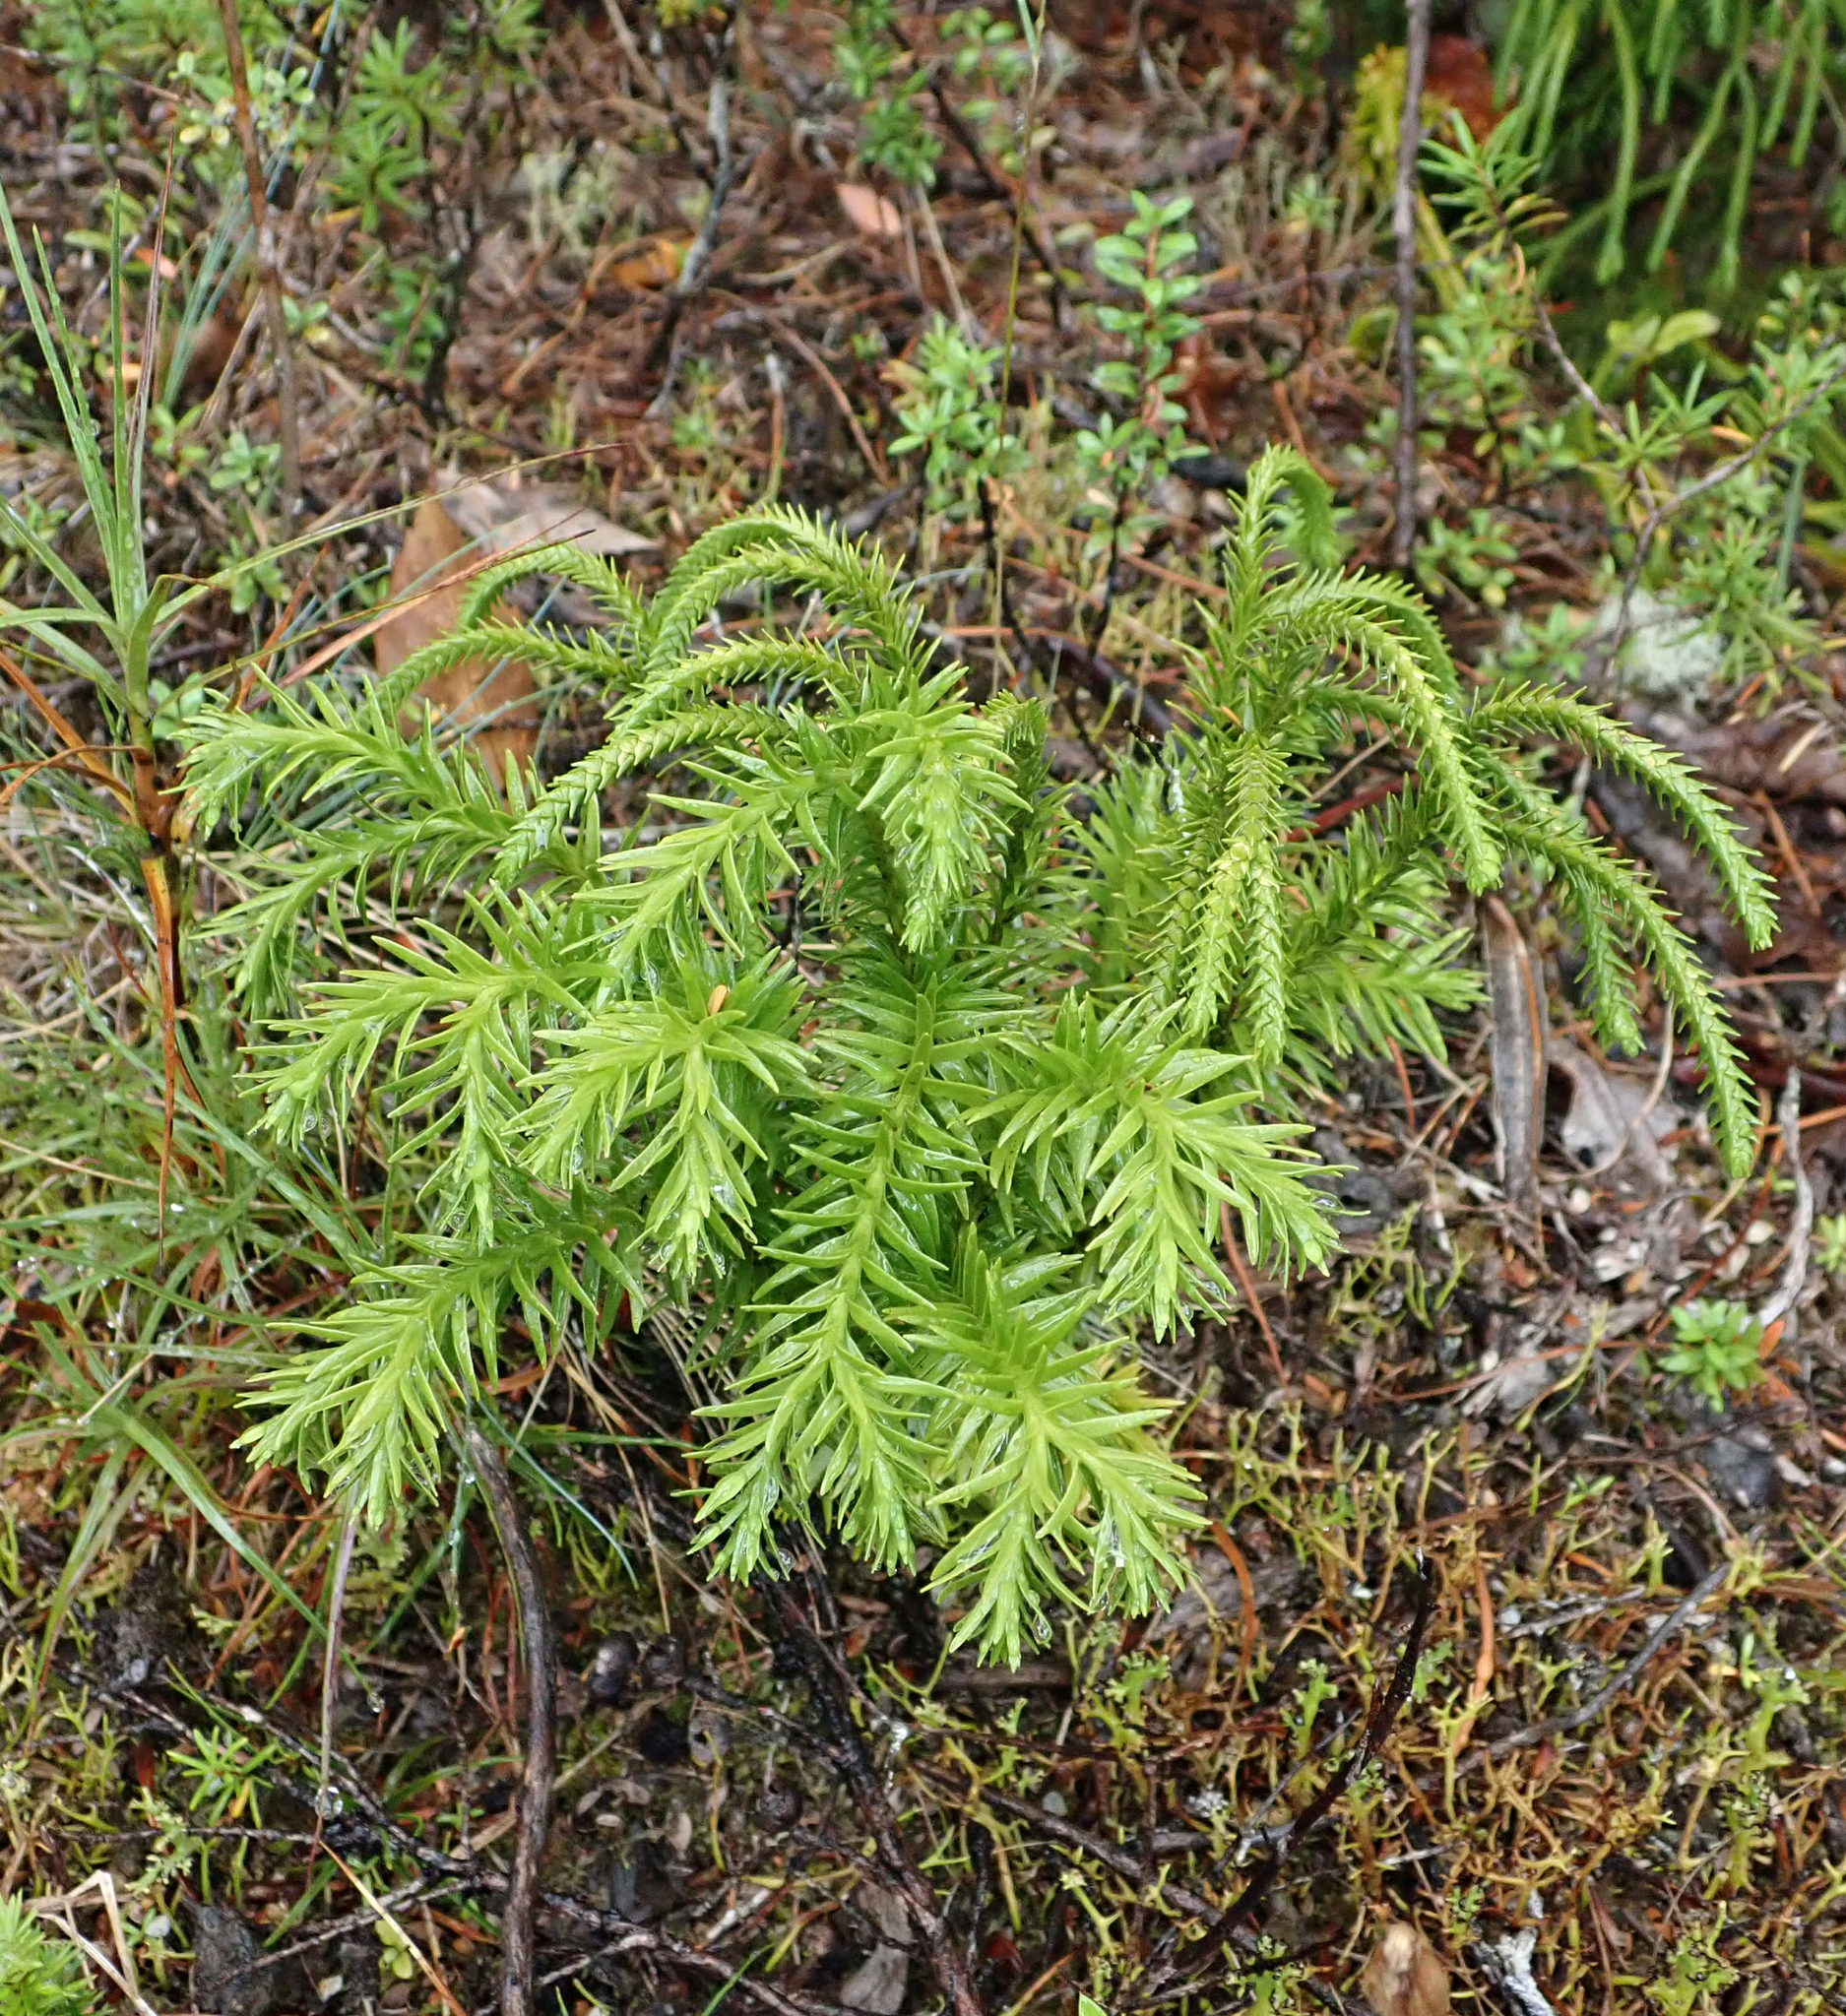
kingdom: Plantae
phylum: Tracheophyta
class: Lycopodiopsida
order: Lycopodiales
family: Lycopodiaceae
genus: Phlegmariurus
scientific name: Phlegmariurus varius
